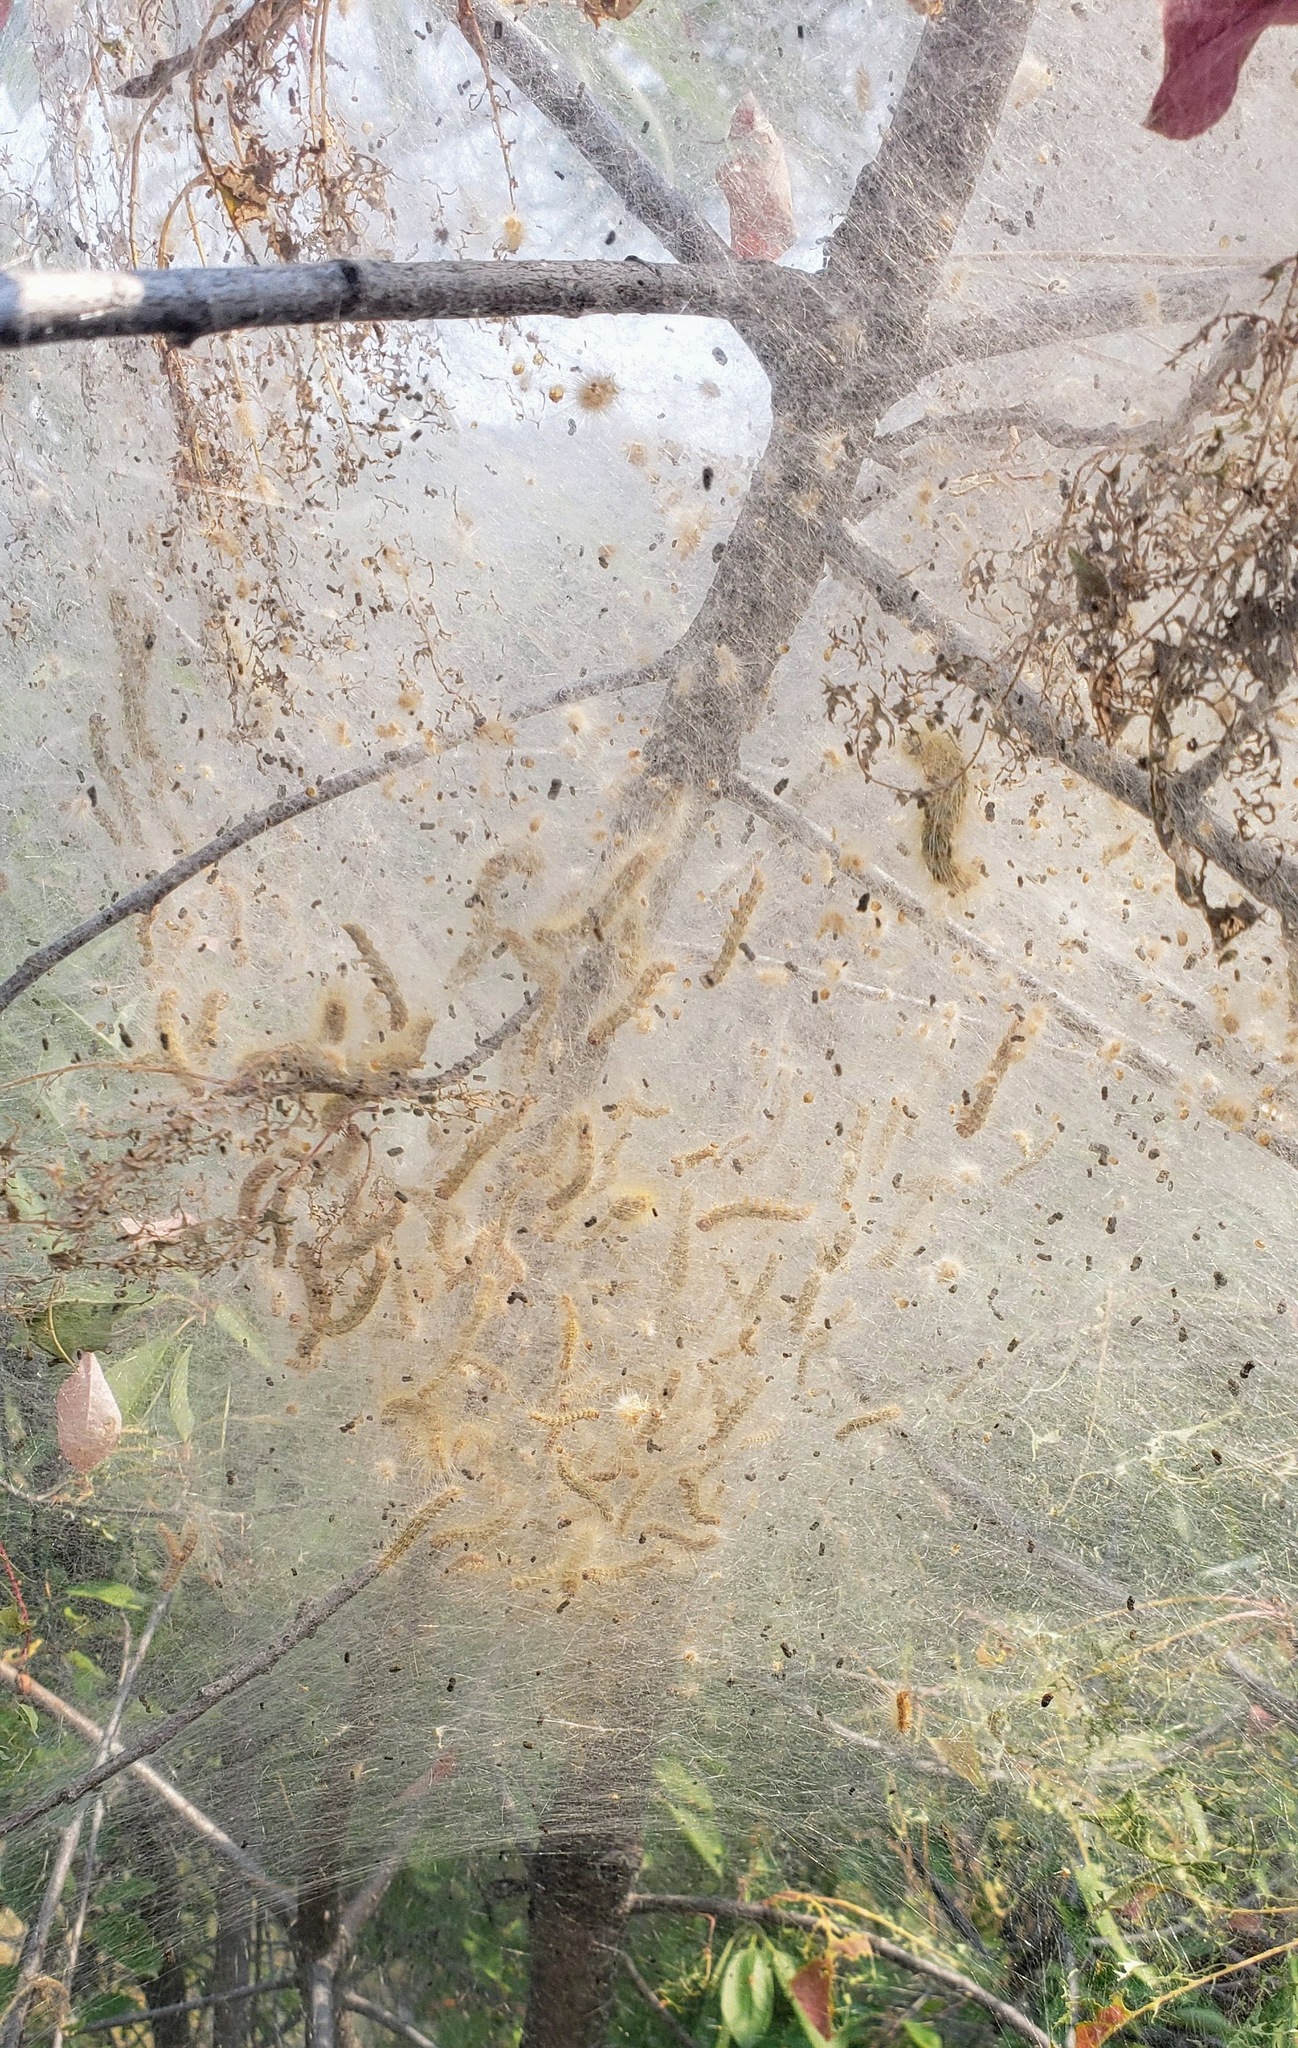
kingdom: Animalia
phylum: Arthropoda
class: Insecta
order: Lepidoptera
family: Erebidae
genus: Hyphantria
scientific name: Hyphantria cunea
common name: American white moth
